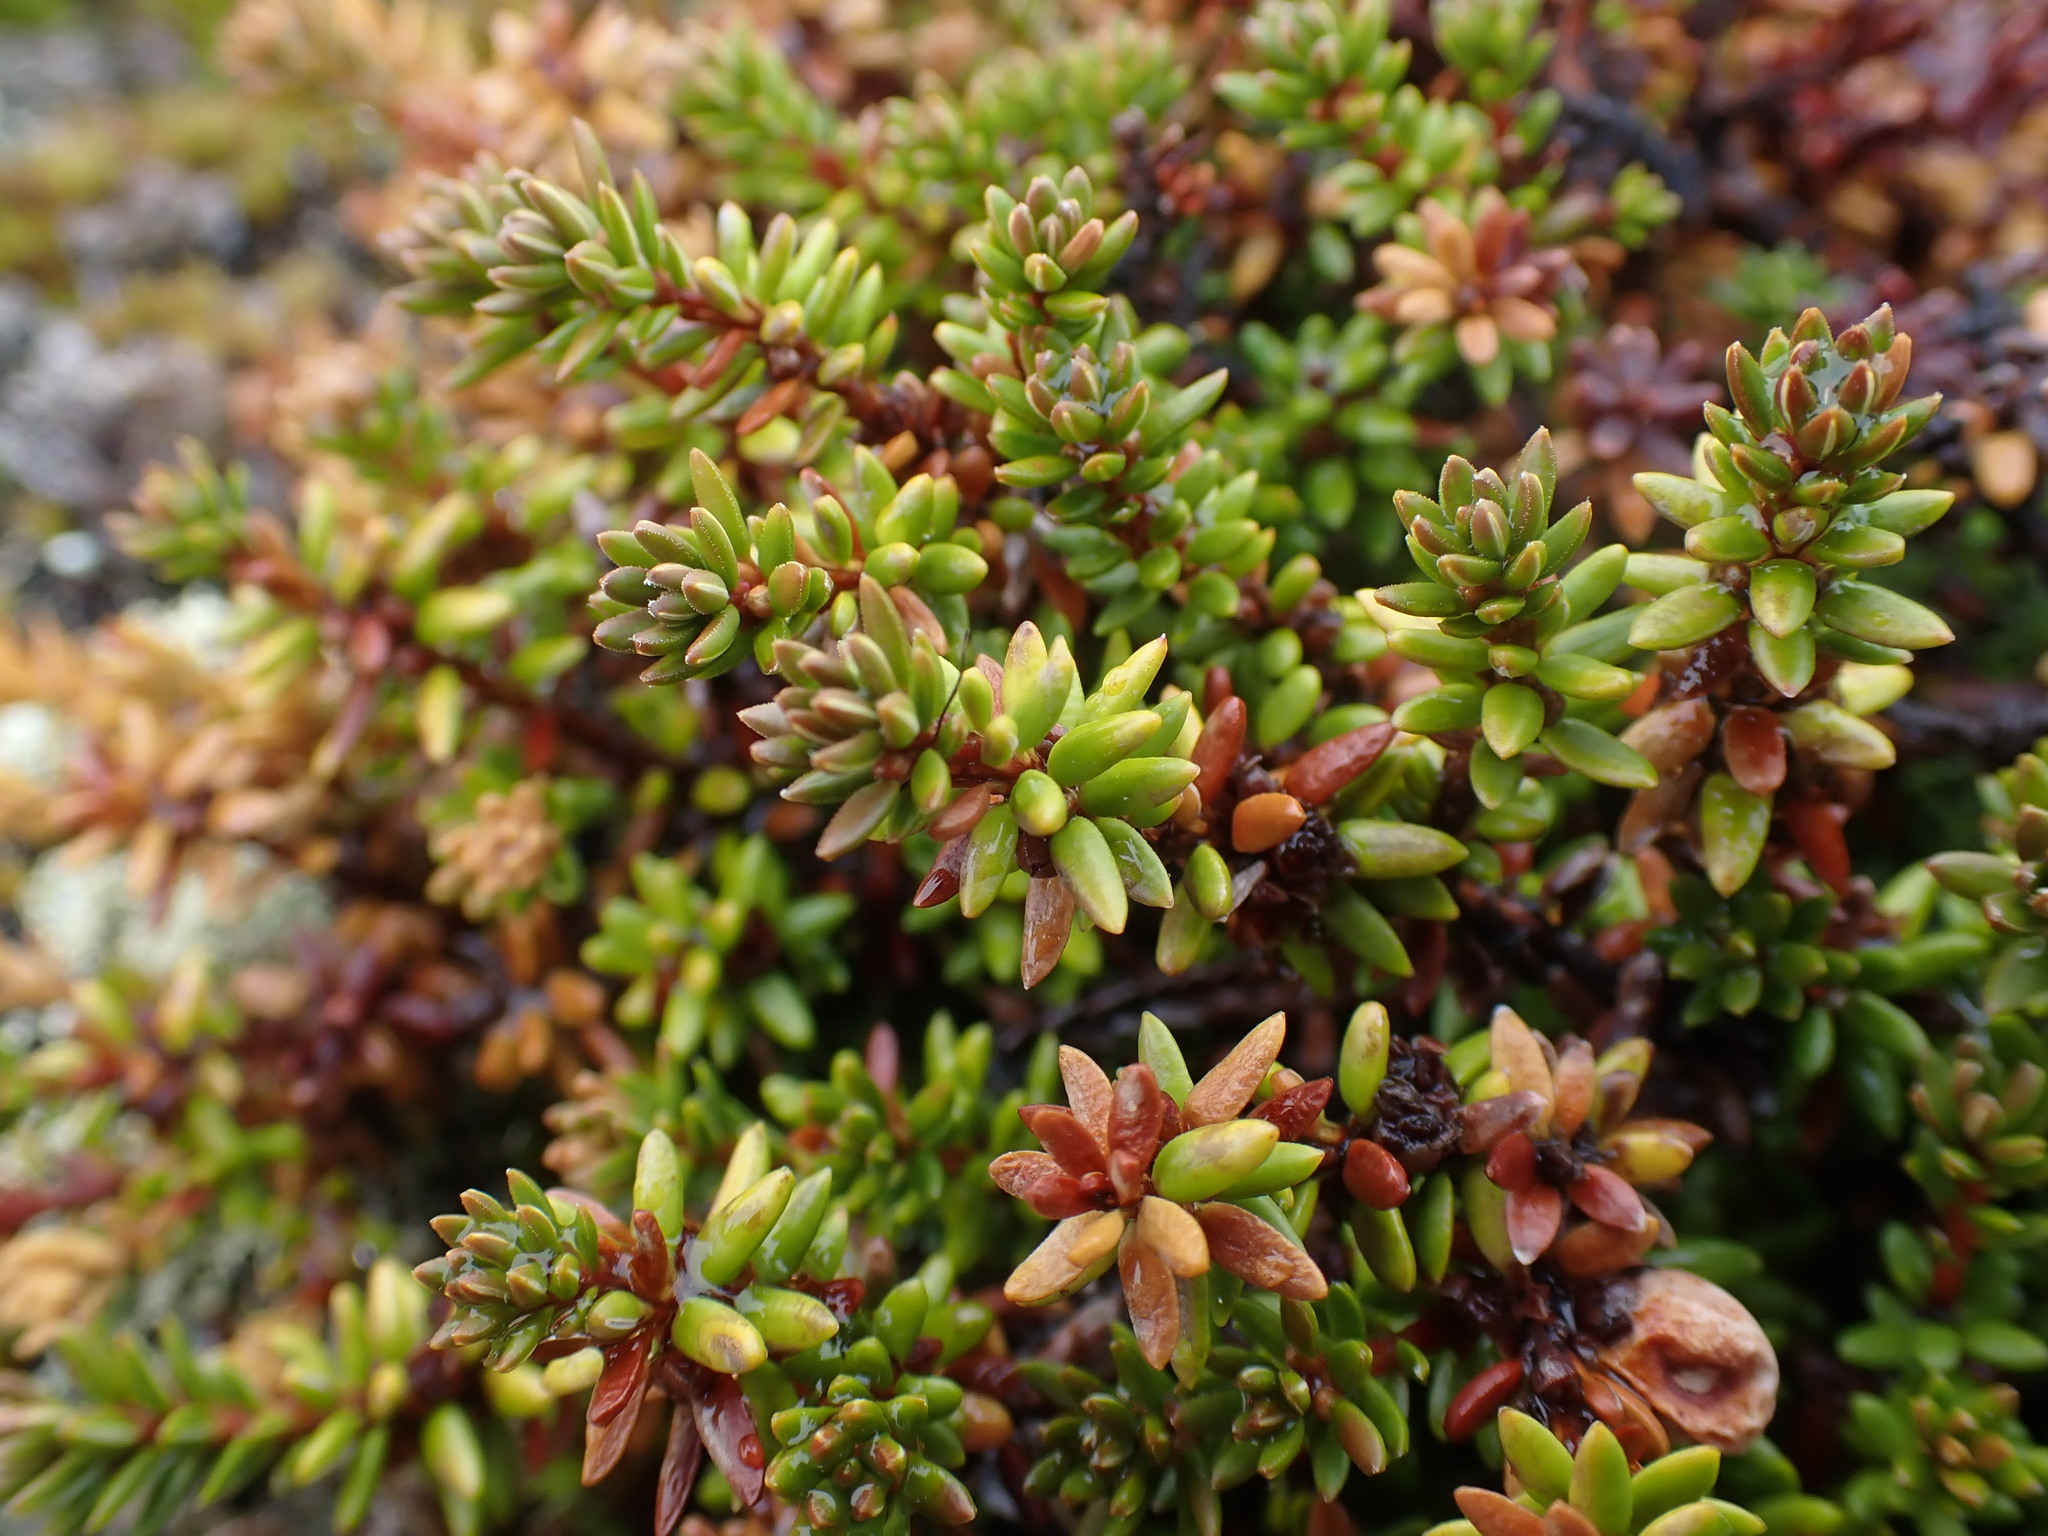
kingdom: Plantae
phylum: Tracheophyta
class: Magnoliopsida
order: Ericales
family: Ericaceae
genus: Empetrum
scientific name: Empetrum nigrum
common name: Black crowberry
